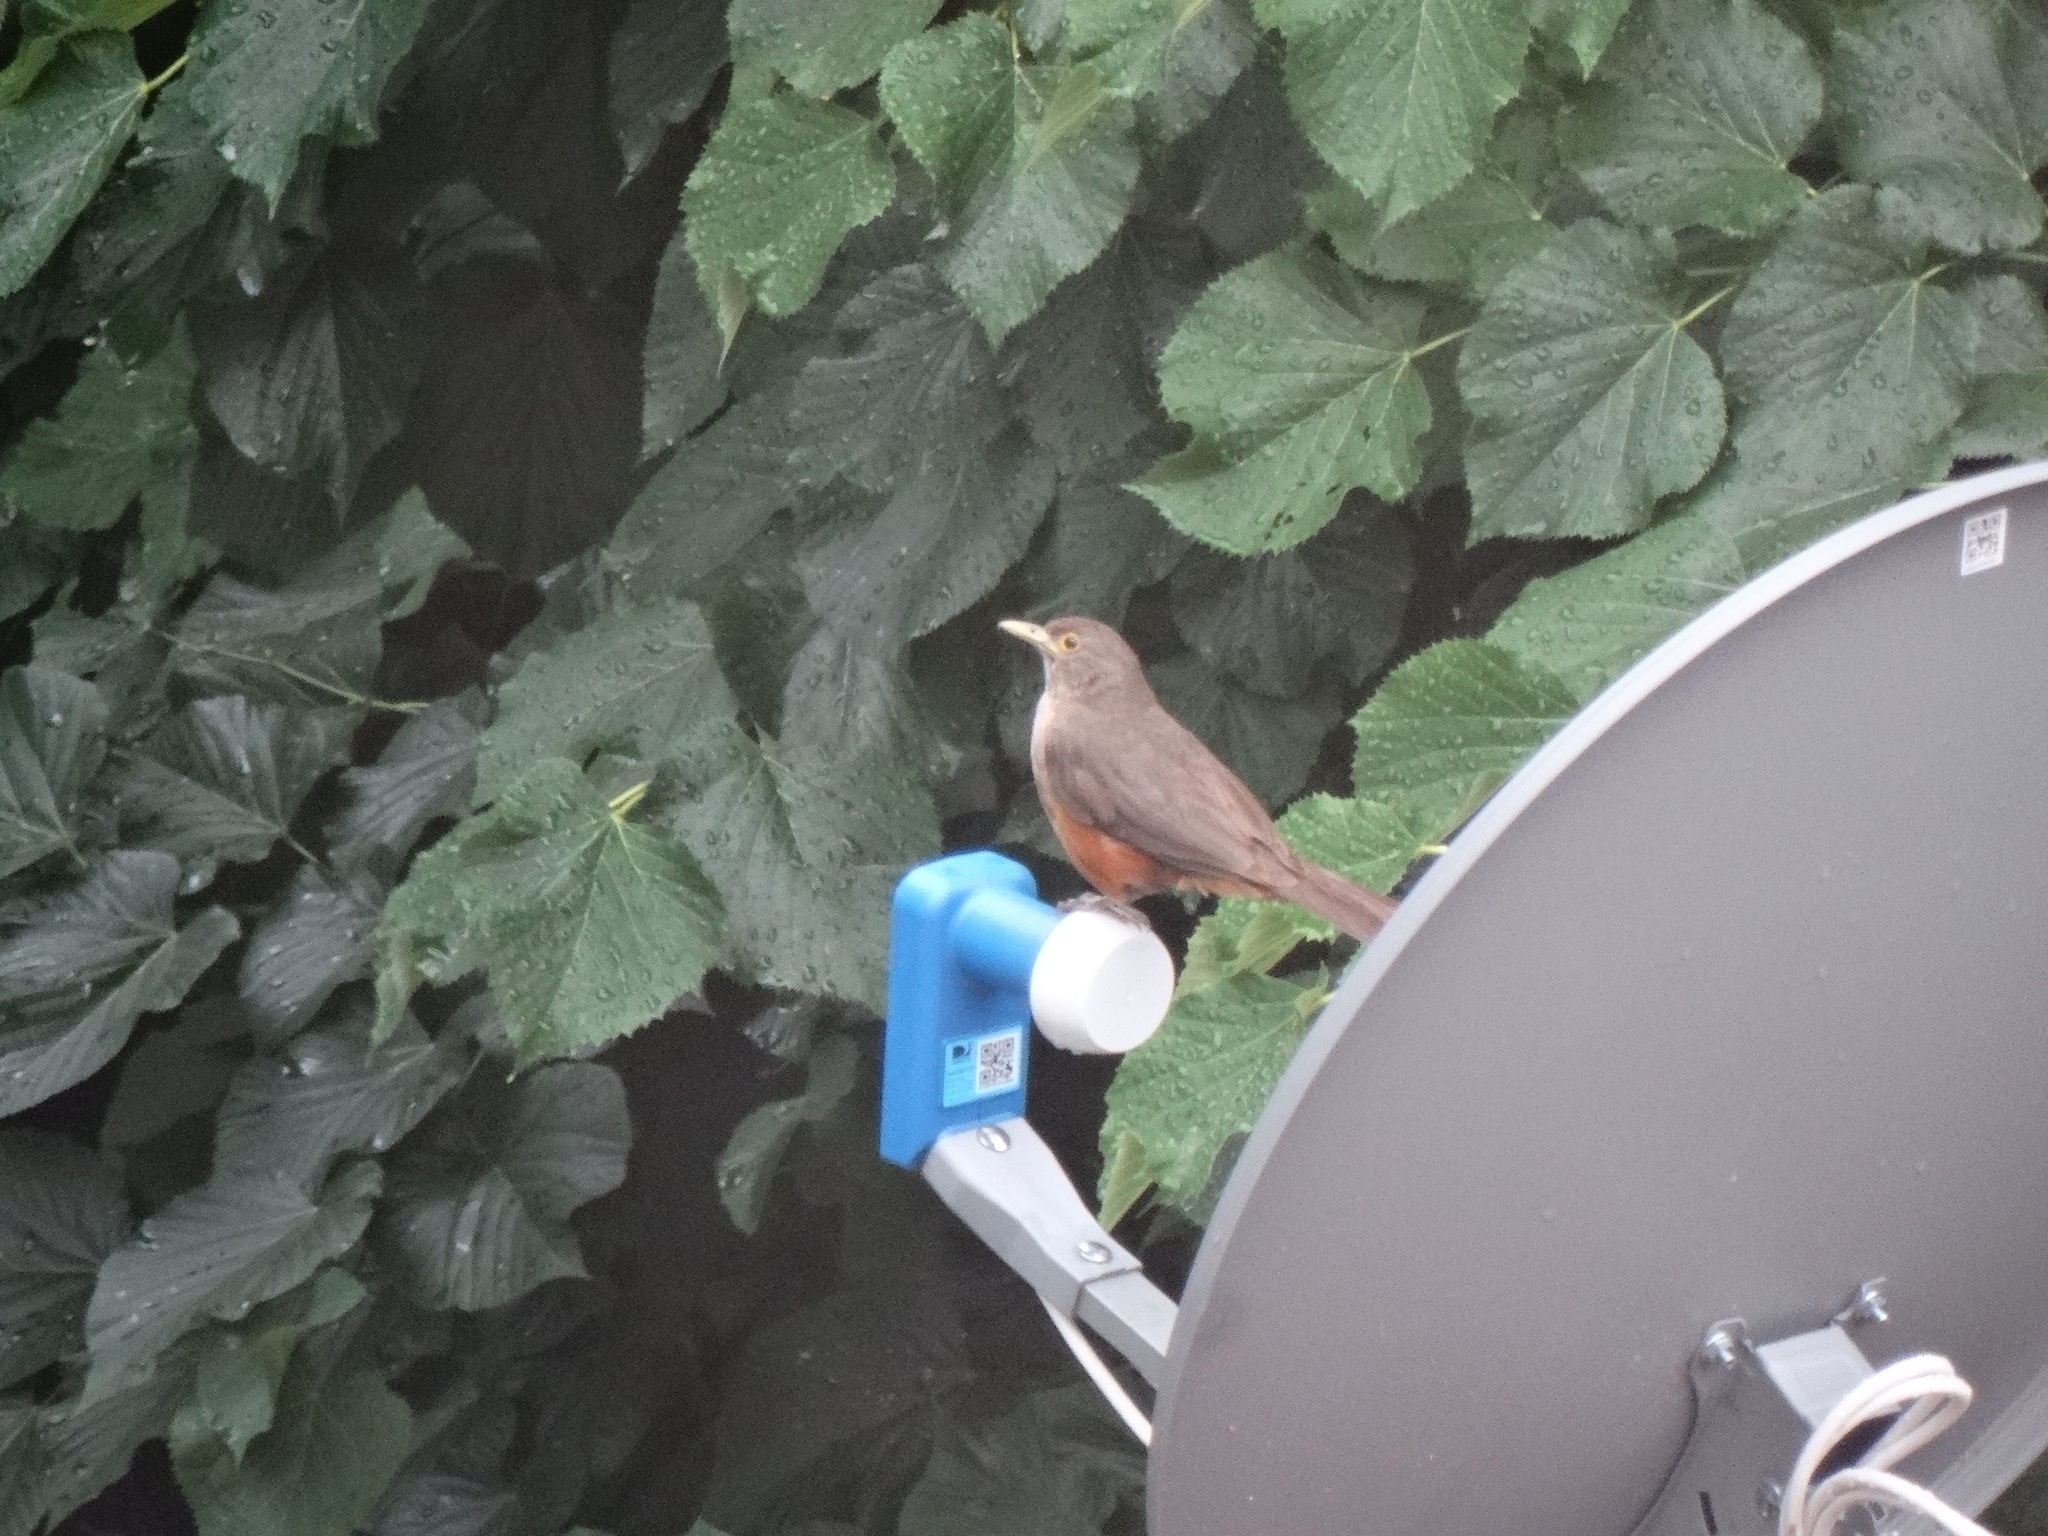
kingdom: Animalia
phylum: Chordata
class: Aves
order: Passeriformes
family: Turdidae
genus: Turdus
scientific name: Turdus rufiventris
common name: Rufous-bellied thrush
